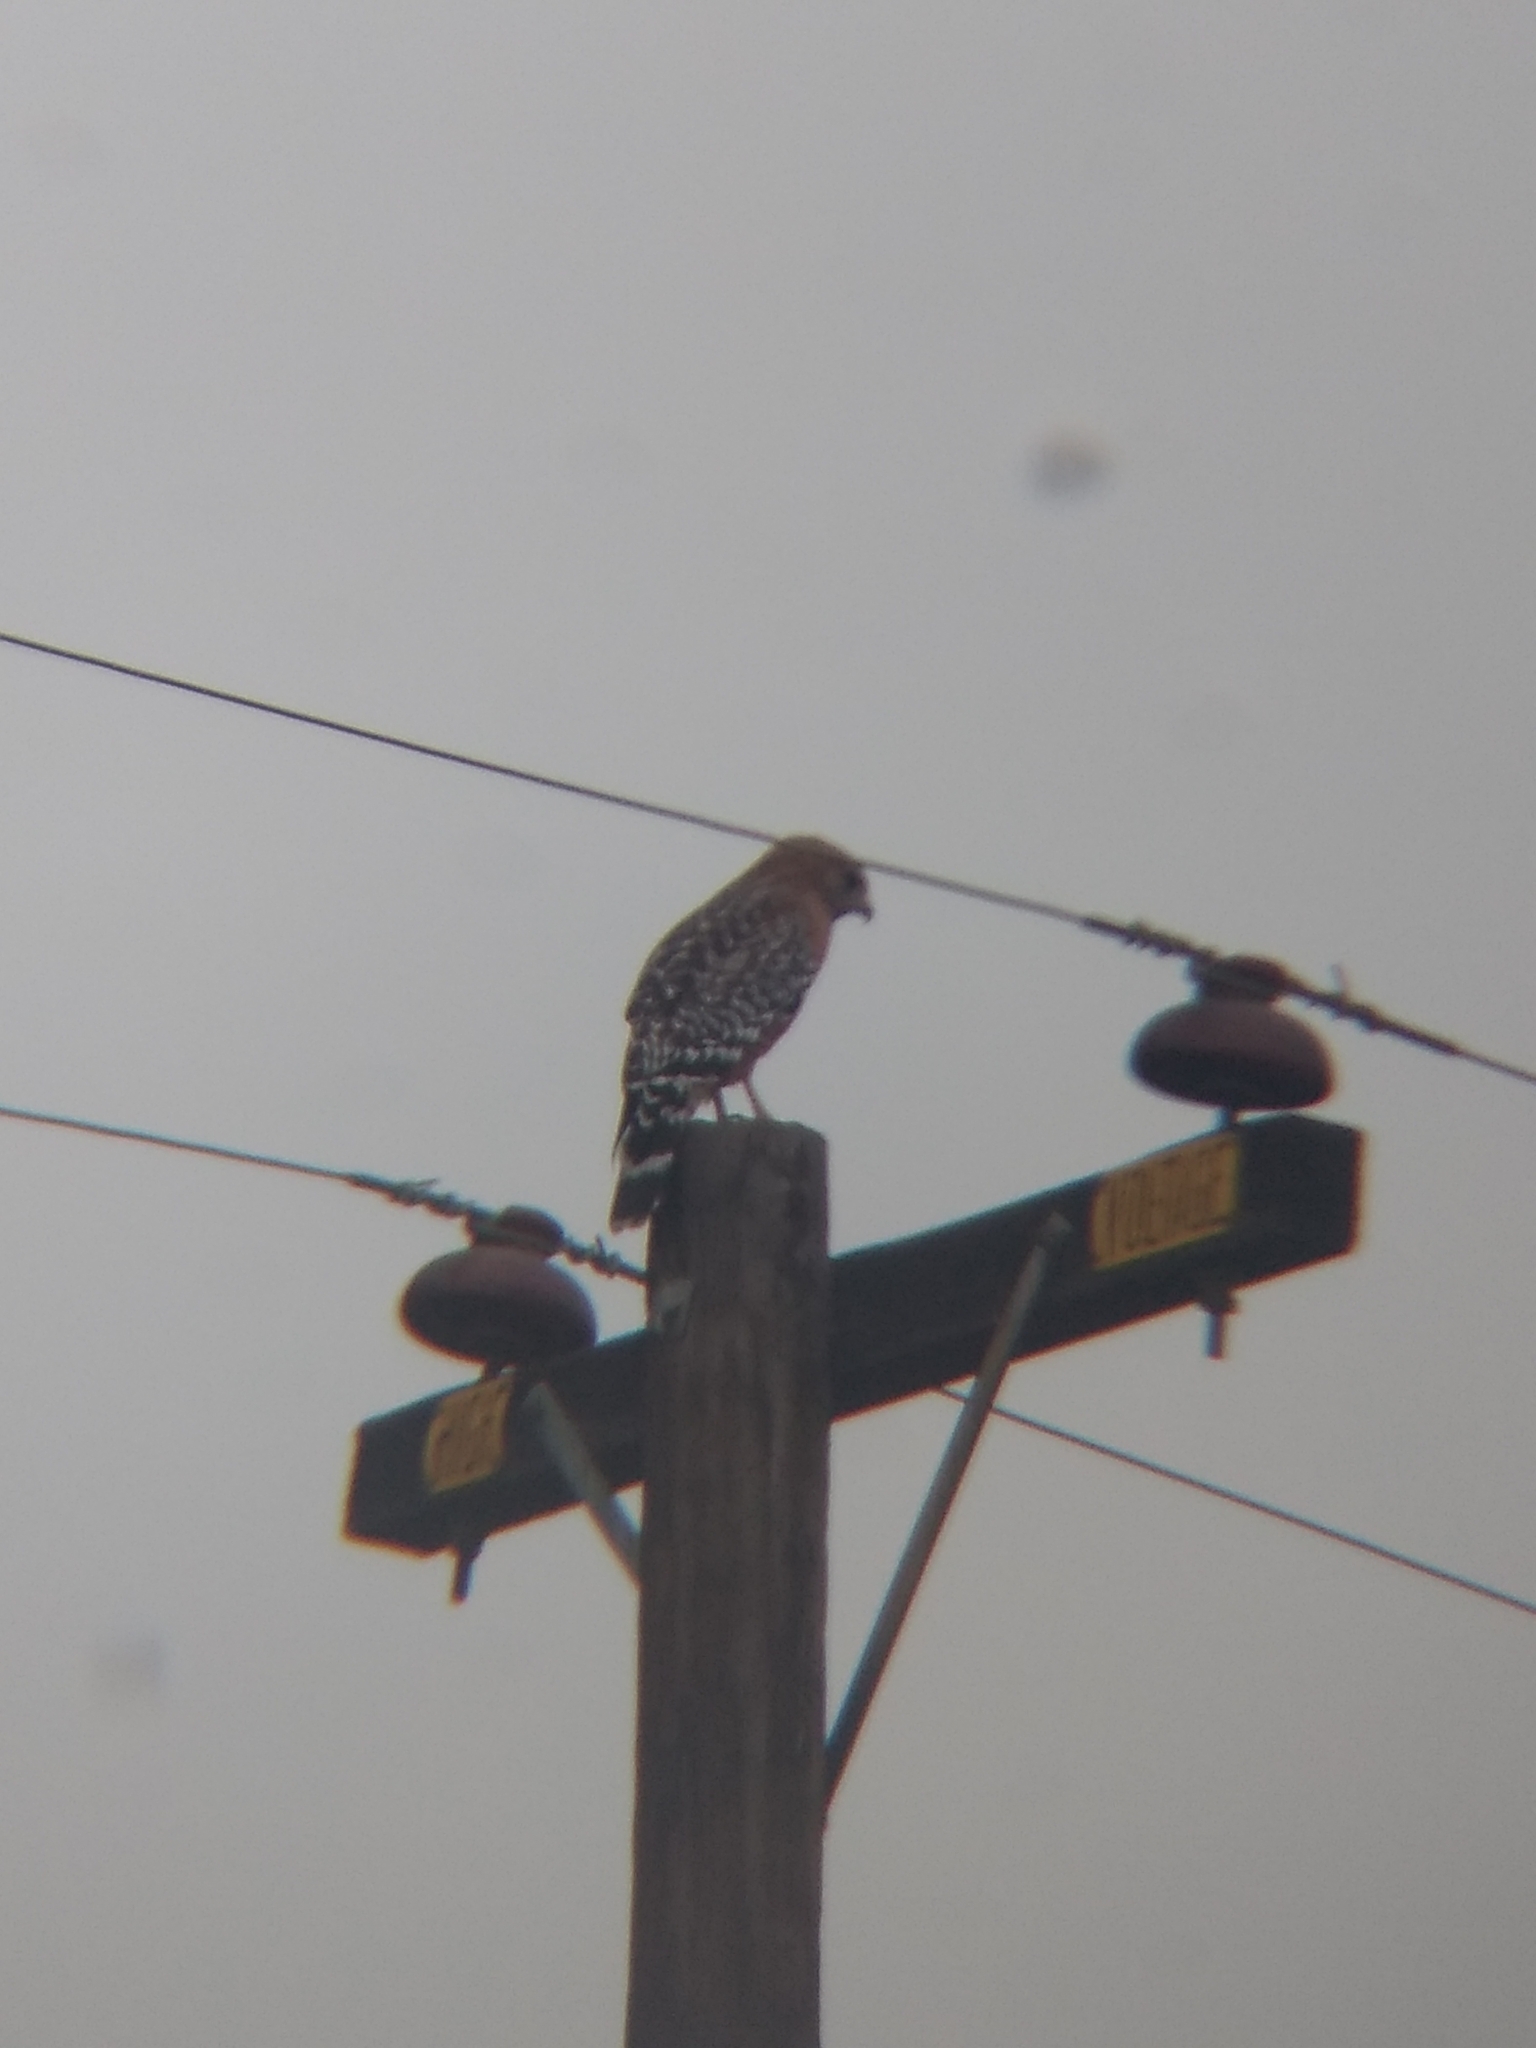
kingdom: Animalia
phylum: Chordata
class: Aves
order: Accipitriformes
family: Accipitridae
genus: Buteo
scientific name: Buteo lineatus
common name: Red-shouldered hawk
